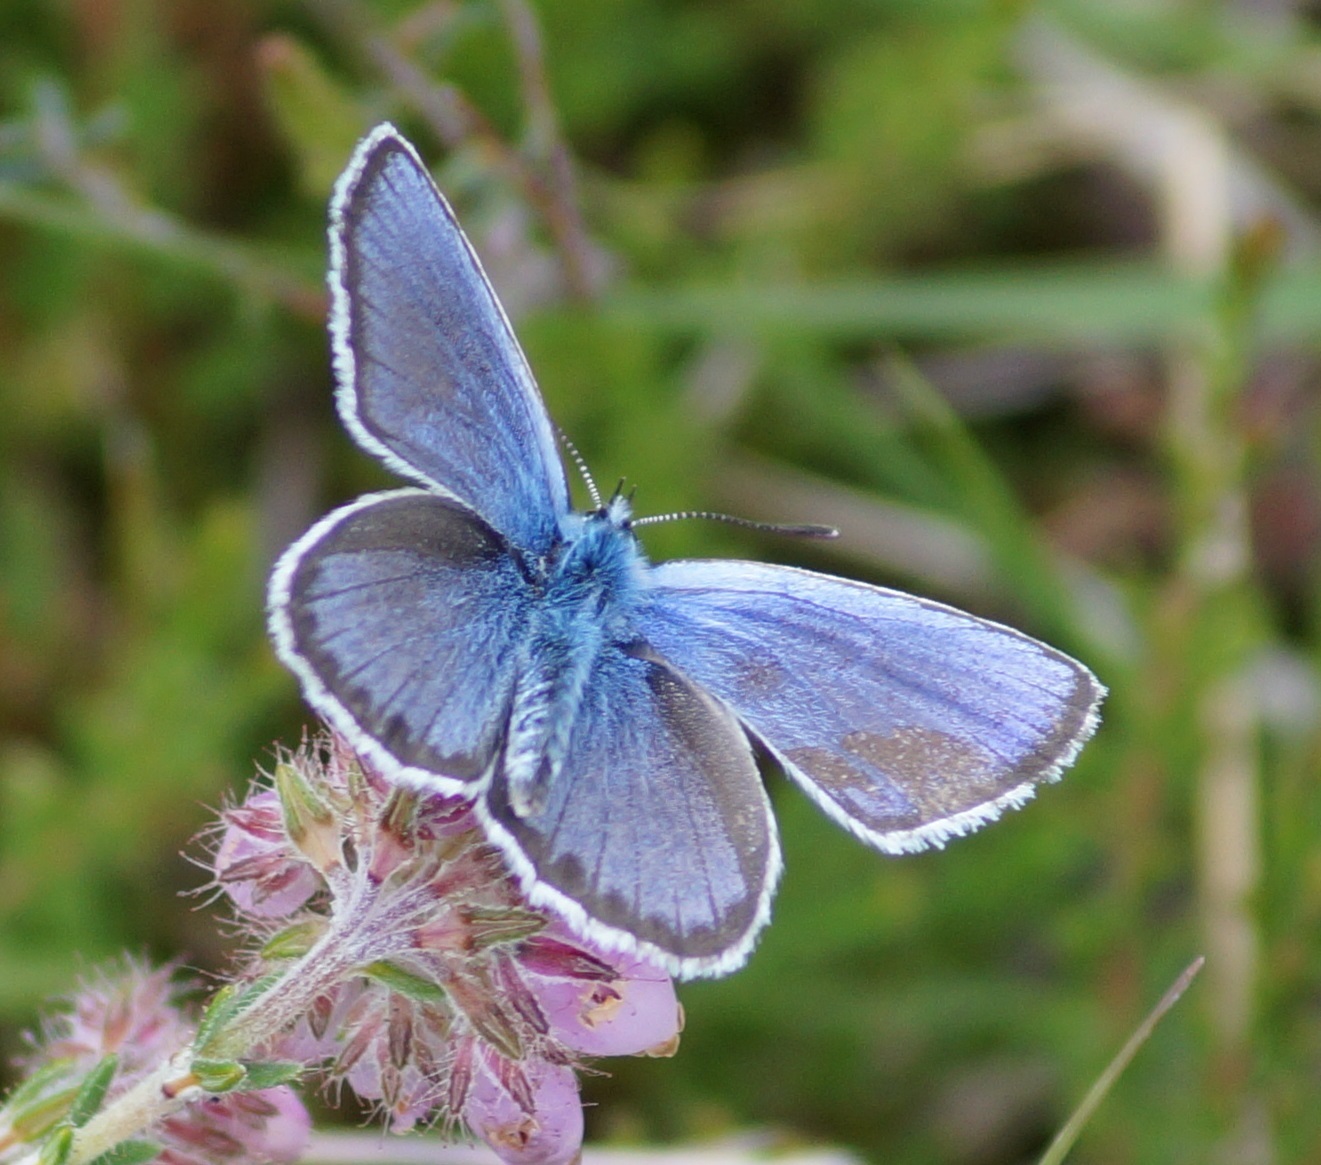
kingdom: Animalia
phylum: Arthropoda
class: Insecta
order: Lepidoptera
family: Lycaenidae
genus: Plebejus
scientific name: Plebejus argus
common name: Silver-studded blue
